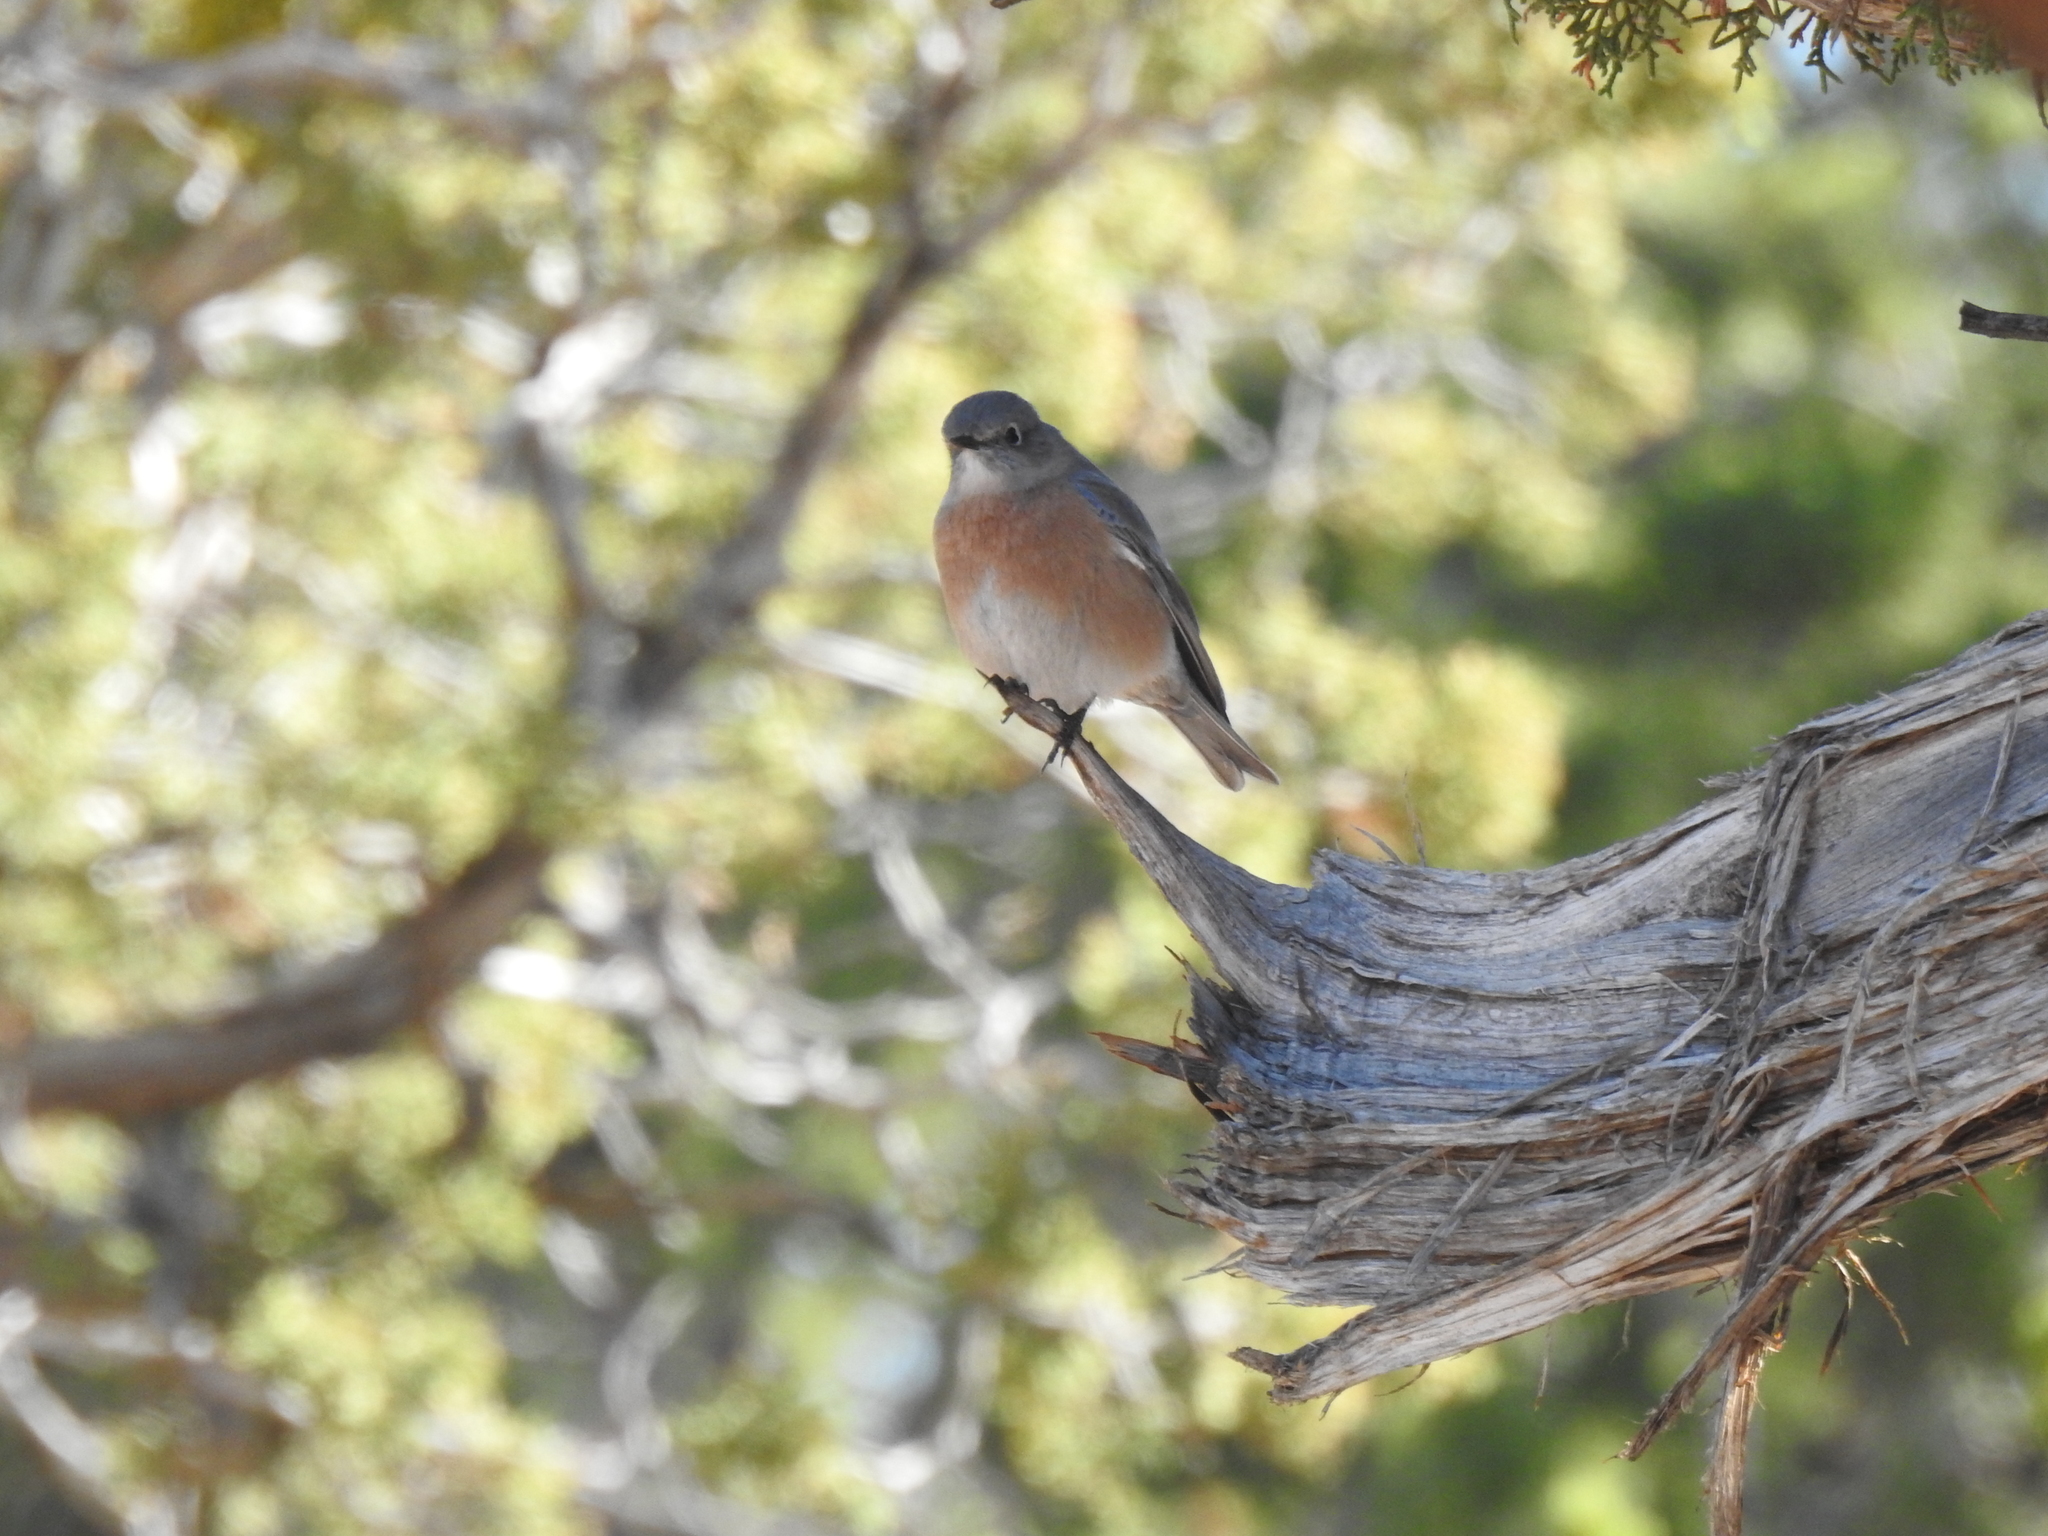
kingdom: Animalia
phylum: Chordata
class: Aves
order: Passeriformes
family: Turdidae
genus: Sialia
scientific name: Sialia mexicana
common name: Western bluebird
